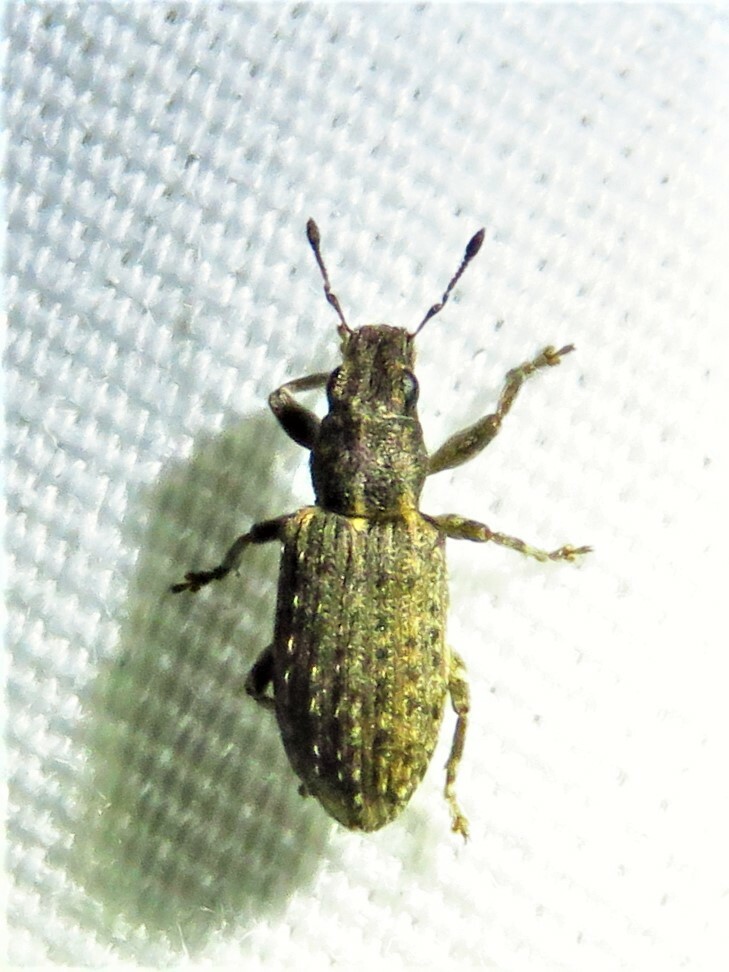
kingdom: Animalia
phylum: Arthropoda
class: Insecta
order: Coleoptera
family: Curculionidae
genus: Sitones
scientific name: Sitones californius
